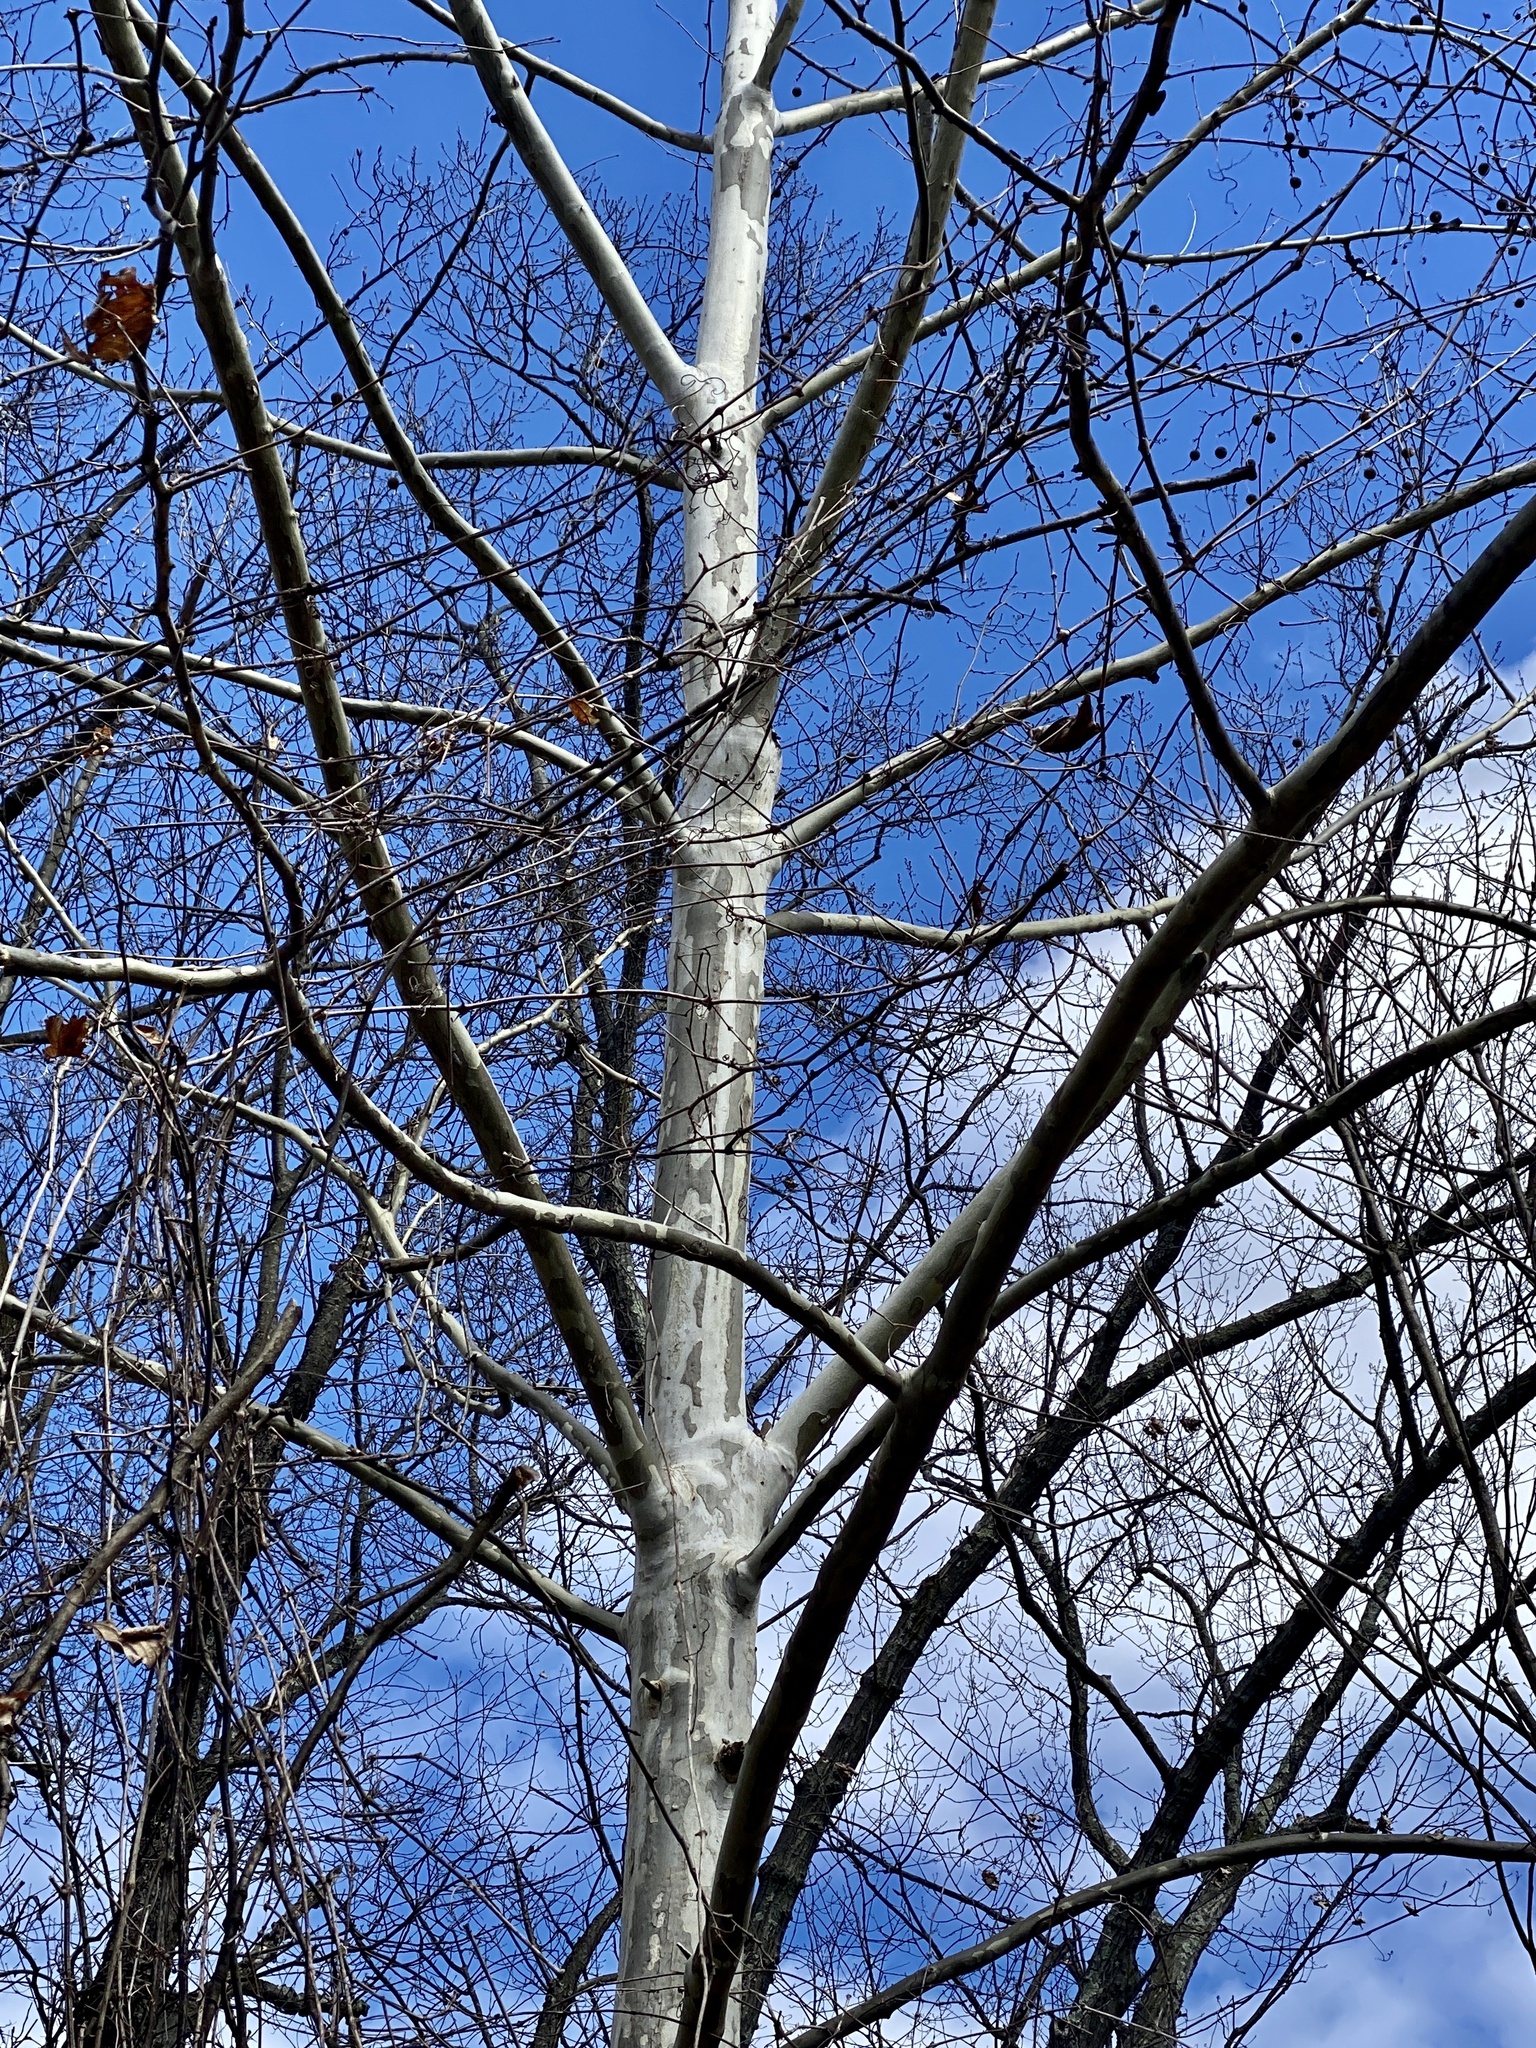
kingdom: Plantae
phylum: Tracheophyta
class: Magnoliopsida
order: Proteales
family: Platanaceae
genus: Platanus
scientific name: Platanus occidentalis
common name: American sycamore
